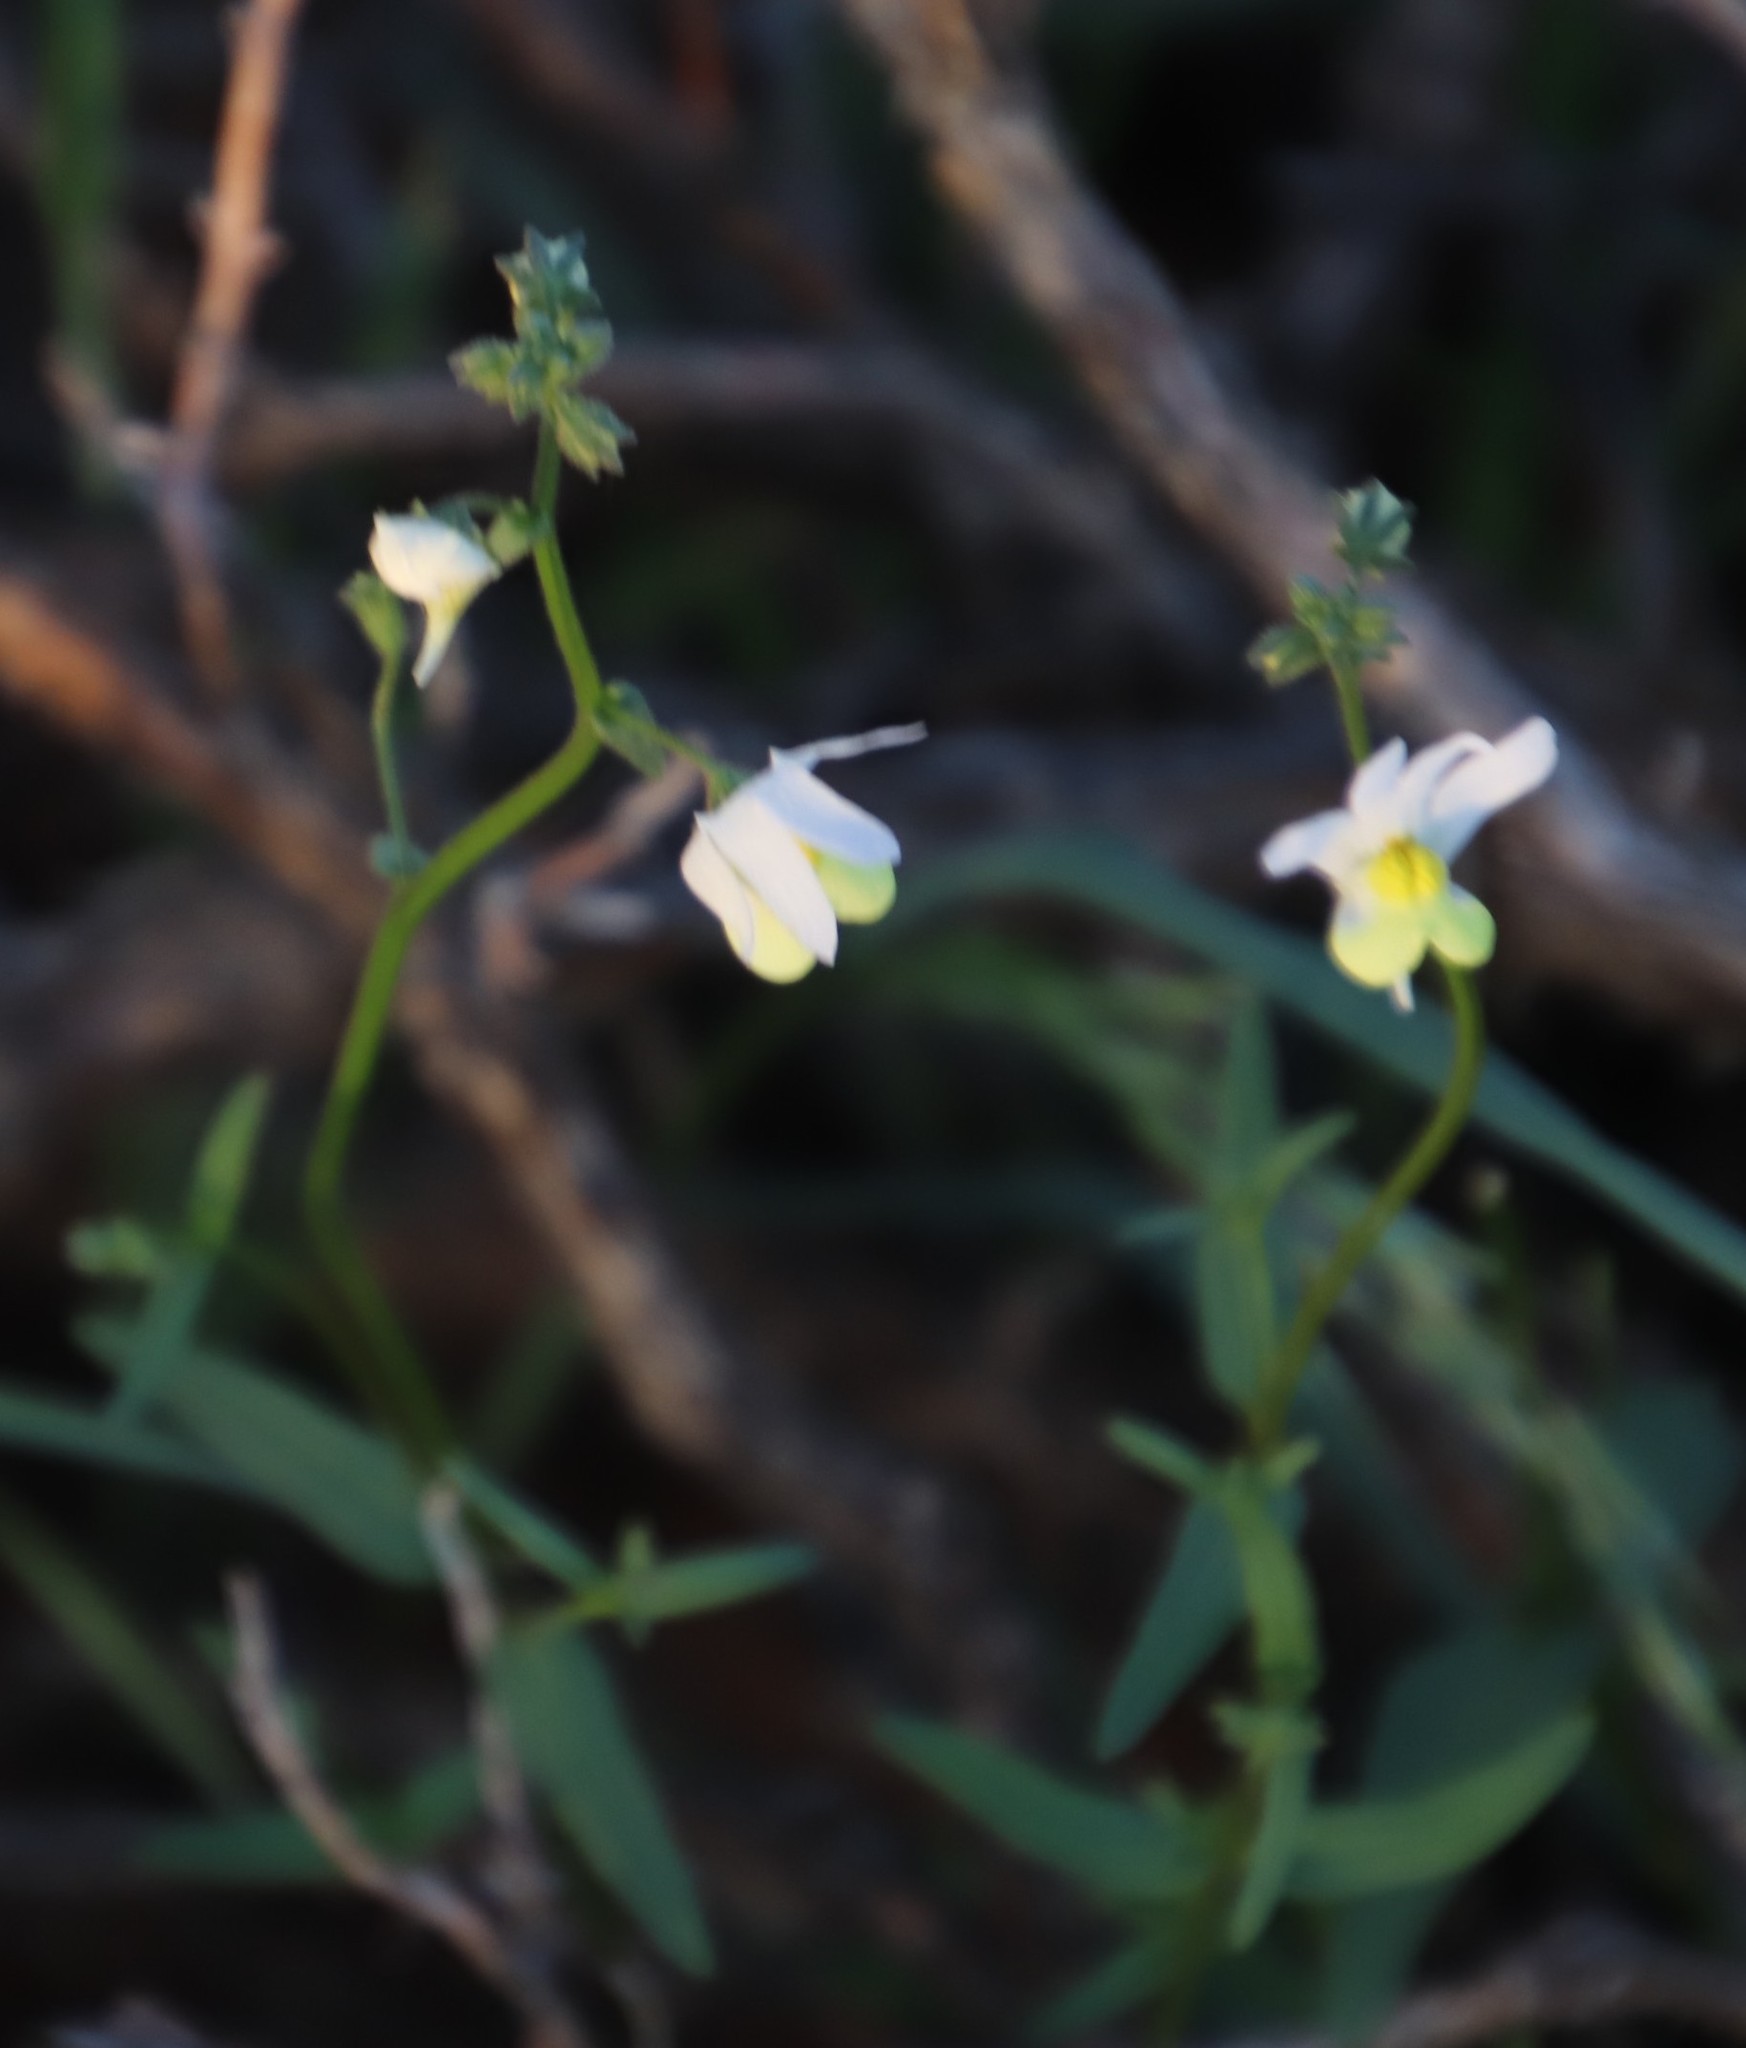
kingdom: Plantae
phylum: Tracheophyta
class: Magnoliopsida
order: Lamiales
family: Scrophulariaceae
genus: Nemesia
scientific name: Nemesia anisocarpa
